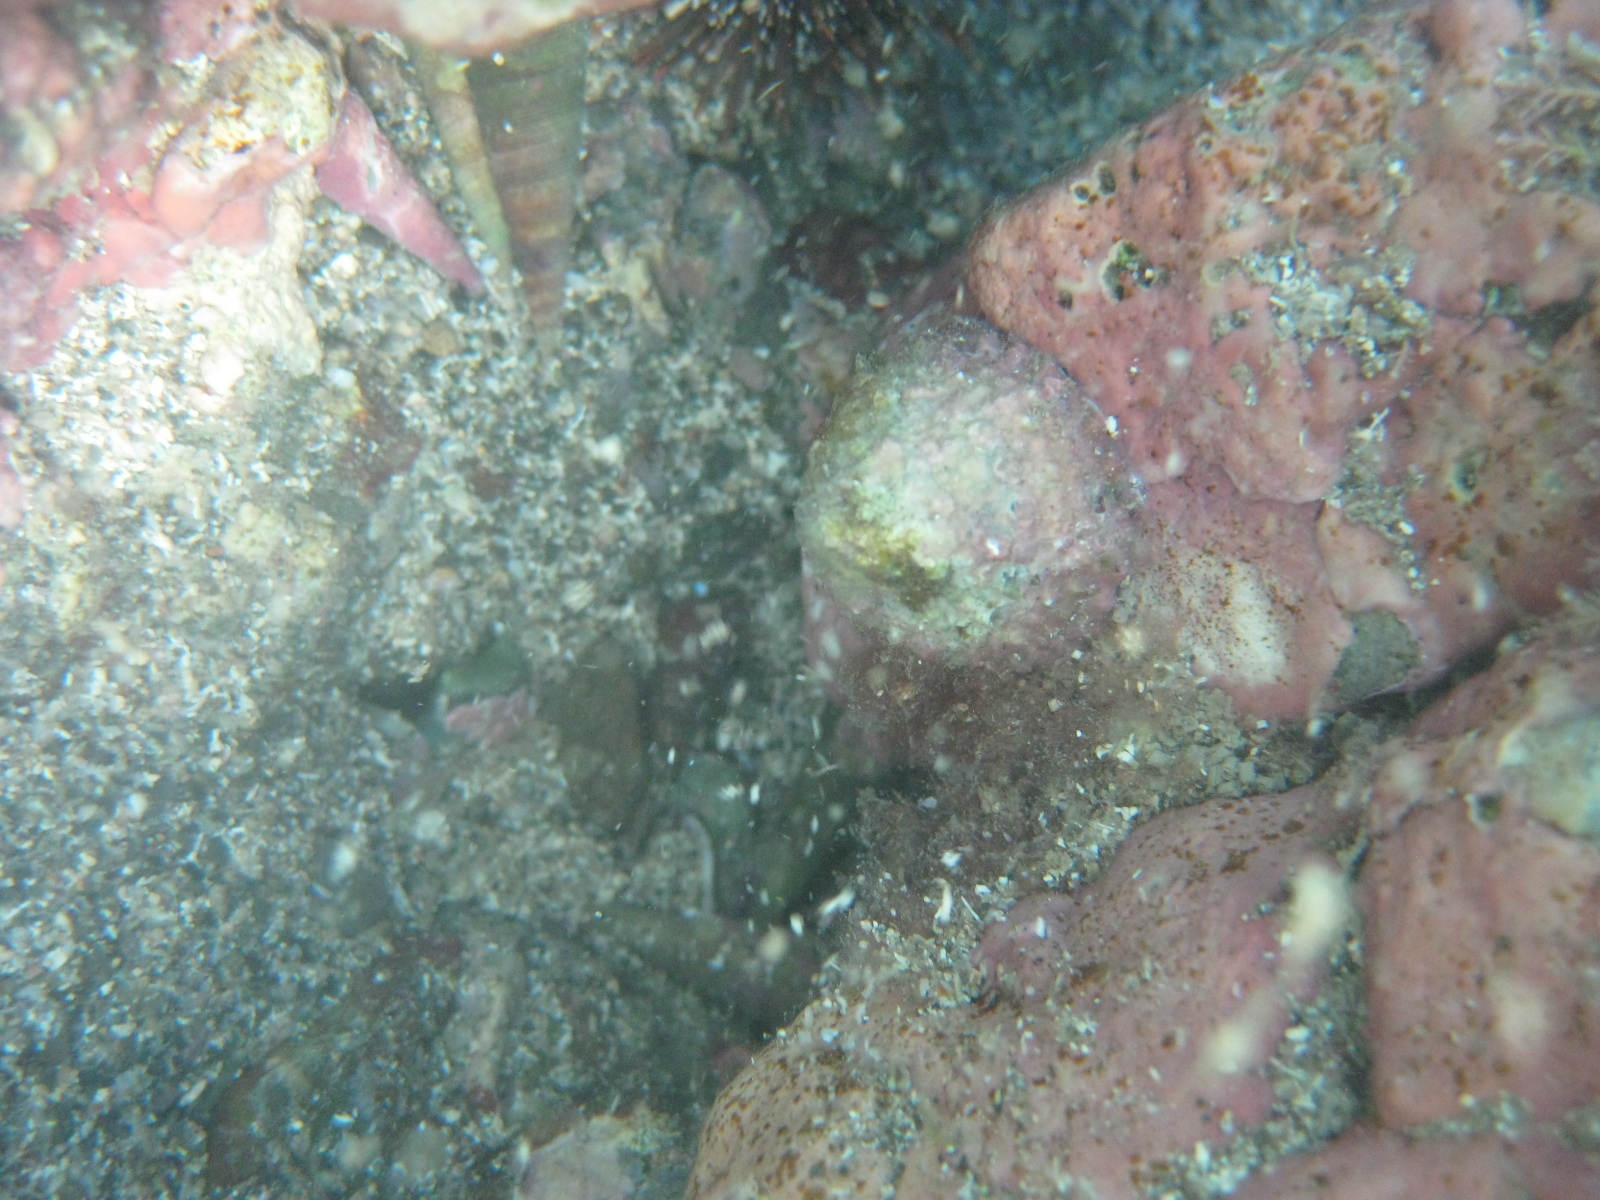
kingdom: Animalia
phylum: Mollusca
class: Gastropoda
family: Nacellidae
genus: Cellana
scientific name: Cellana stellifera
